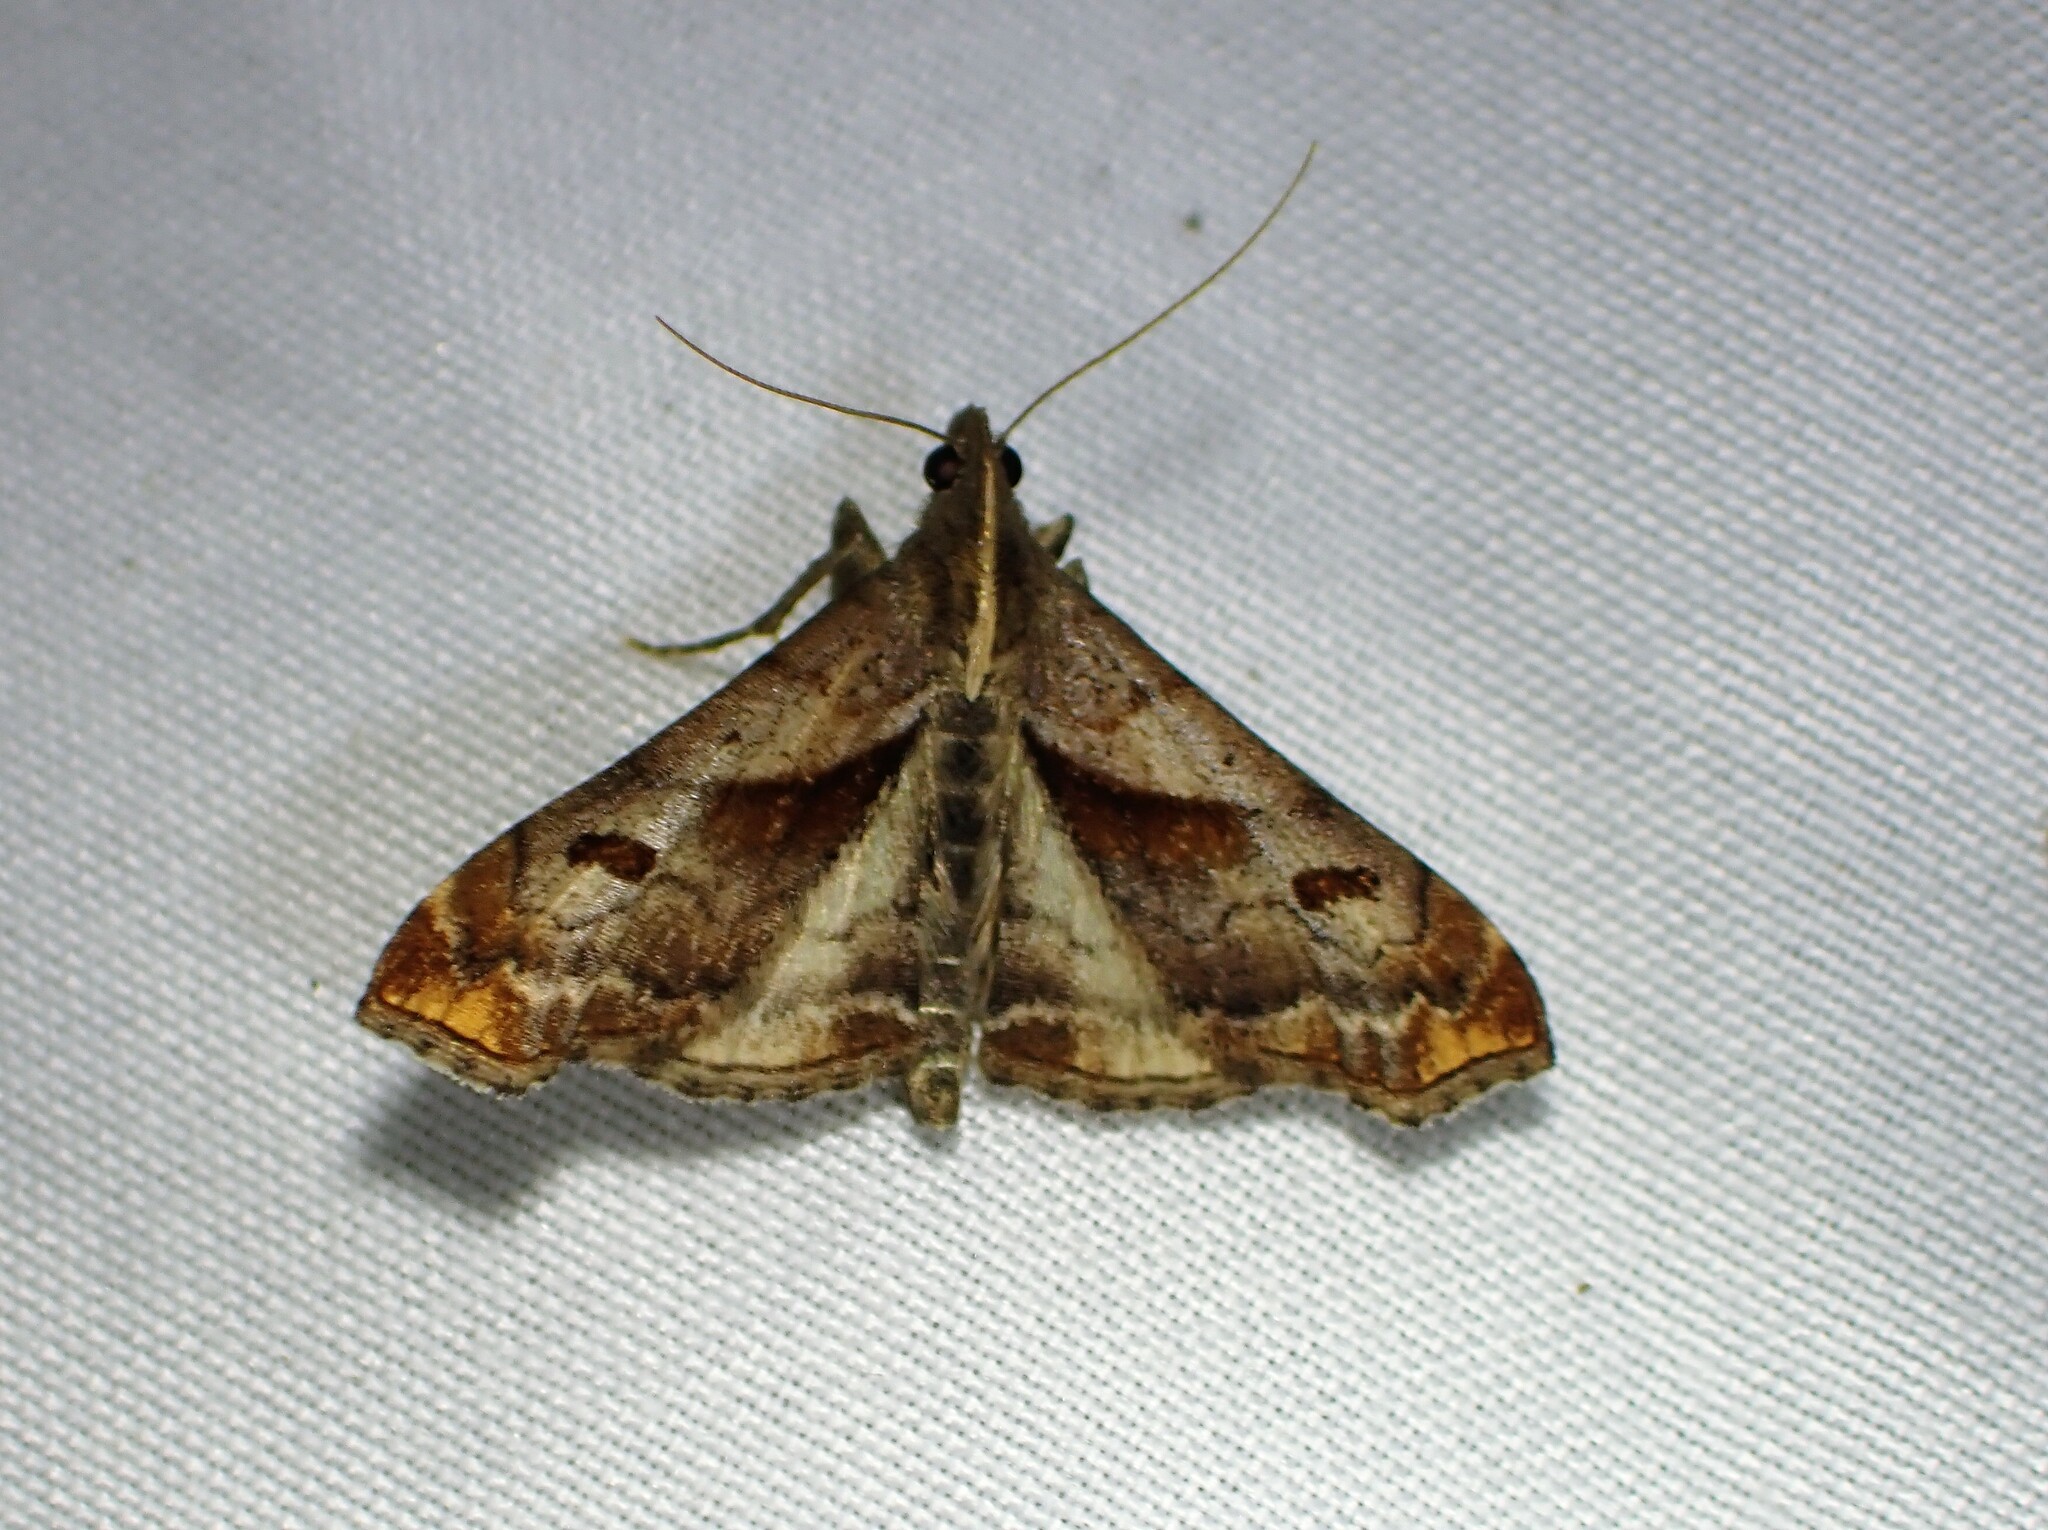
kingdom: Animalia
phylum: Arthropoda
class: Insecta
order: Lepidoptera
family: Erebidae
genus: Palthis
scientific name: Palthis angulalis
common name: Dark-spotted palthis moth
